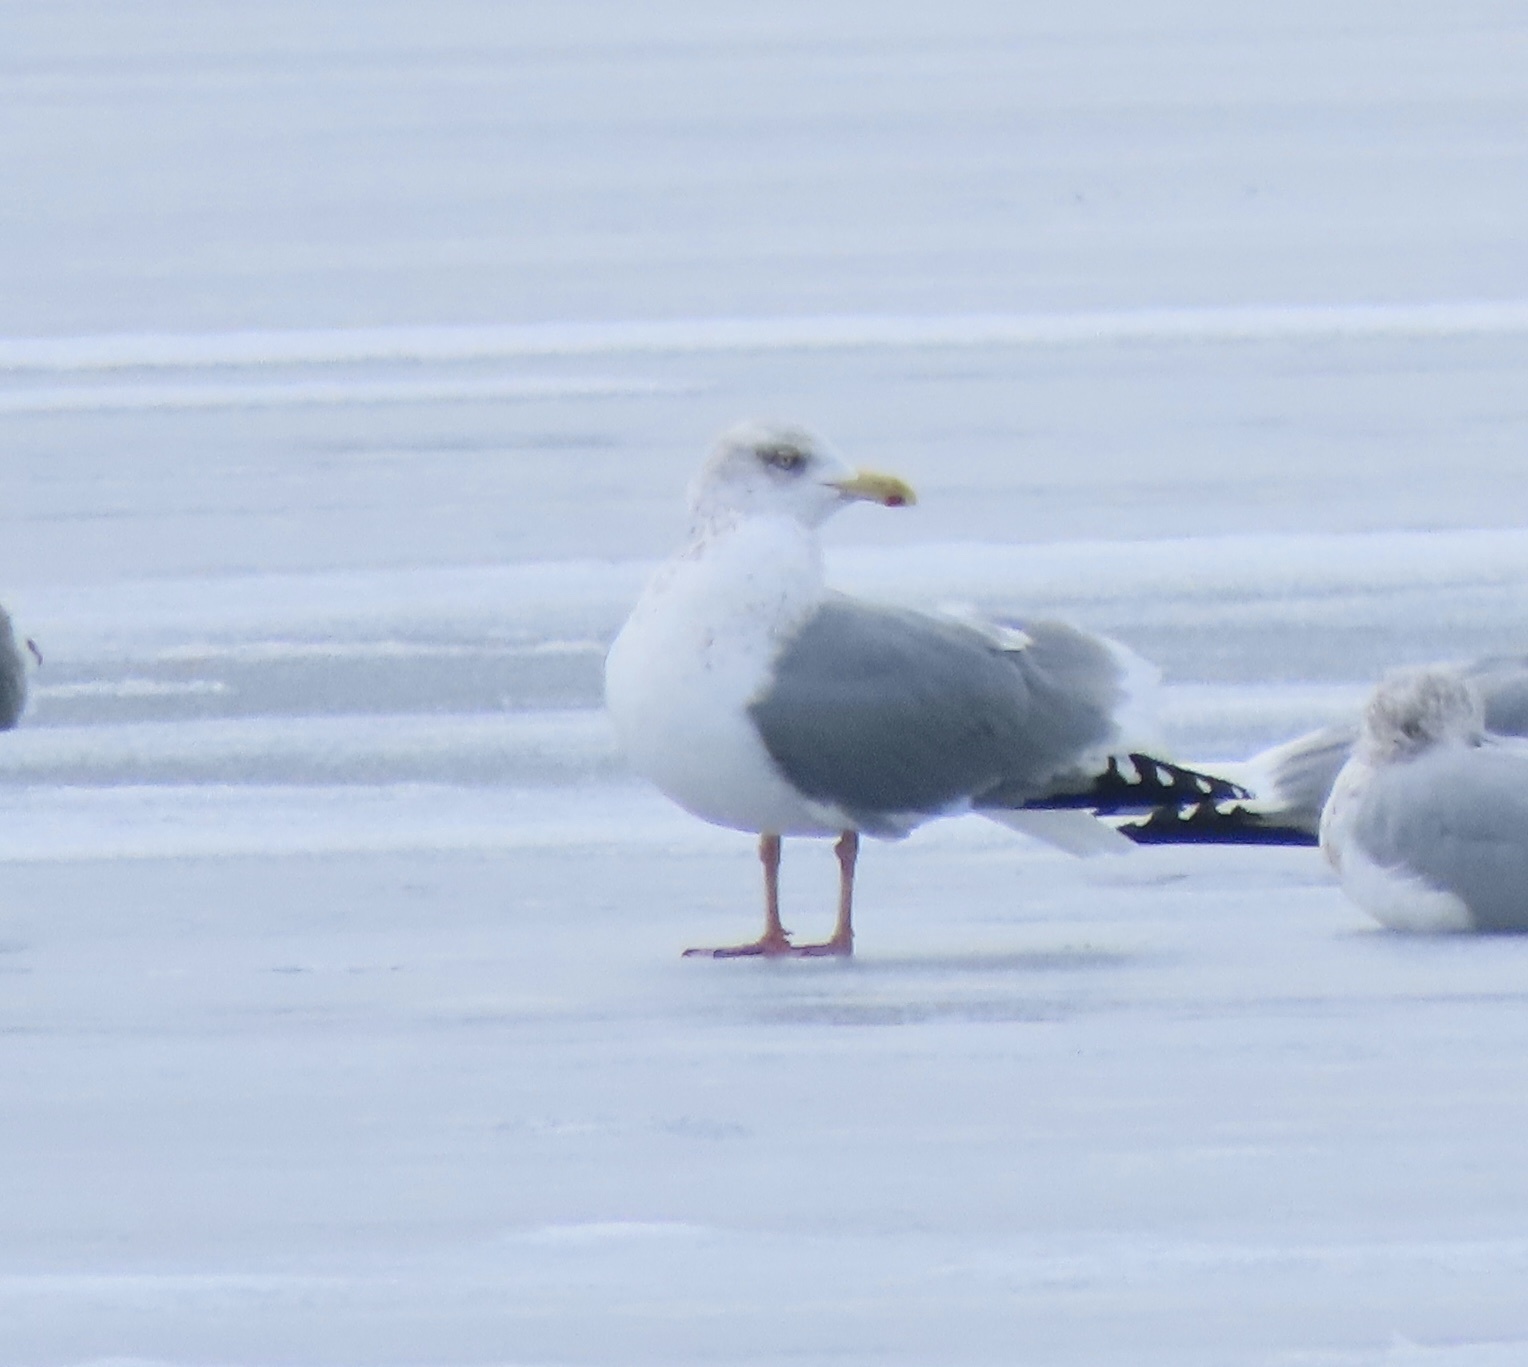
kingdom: Animalia
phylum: Chordata
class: Aves
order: Charadriiformes
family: Laridae
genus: Larus
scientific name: Larus argentatus
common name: Herring gull
